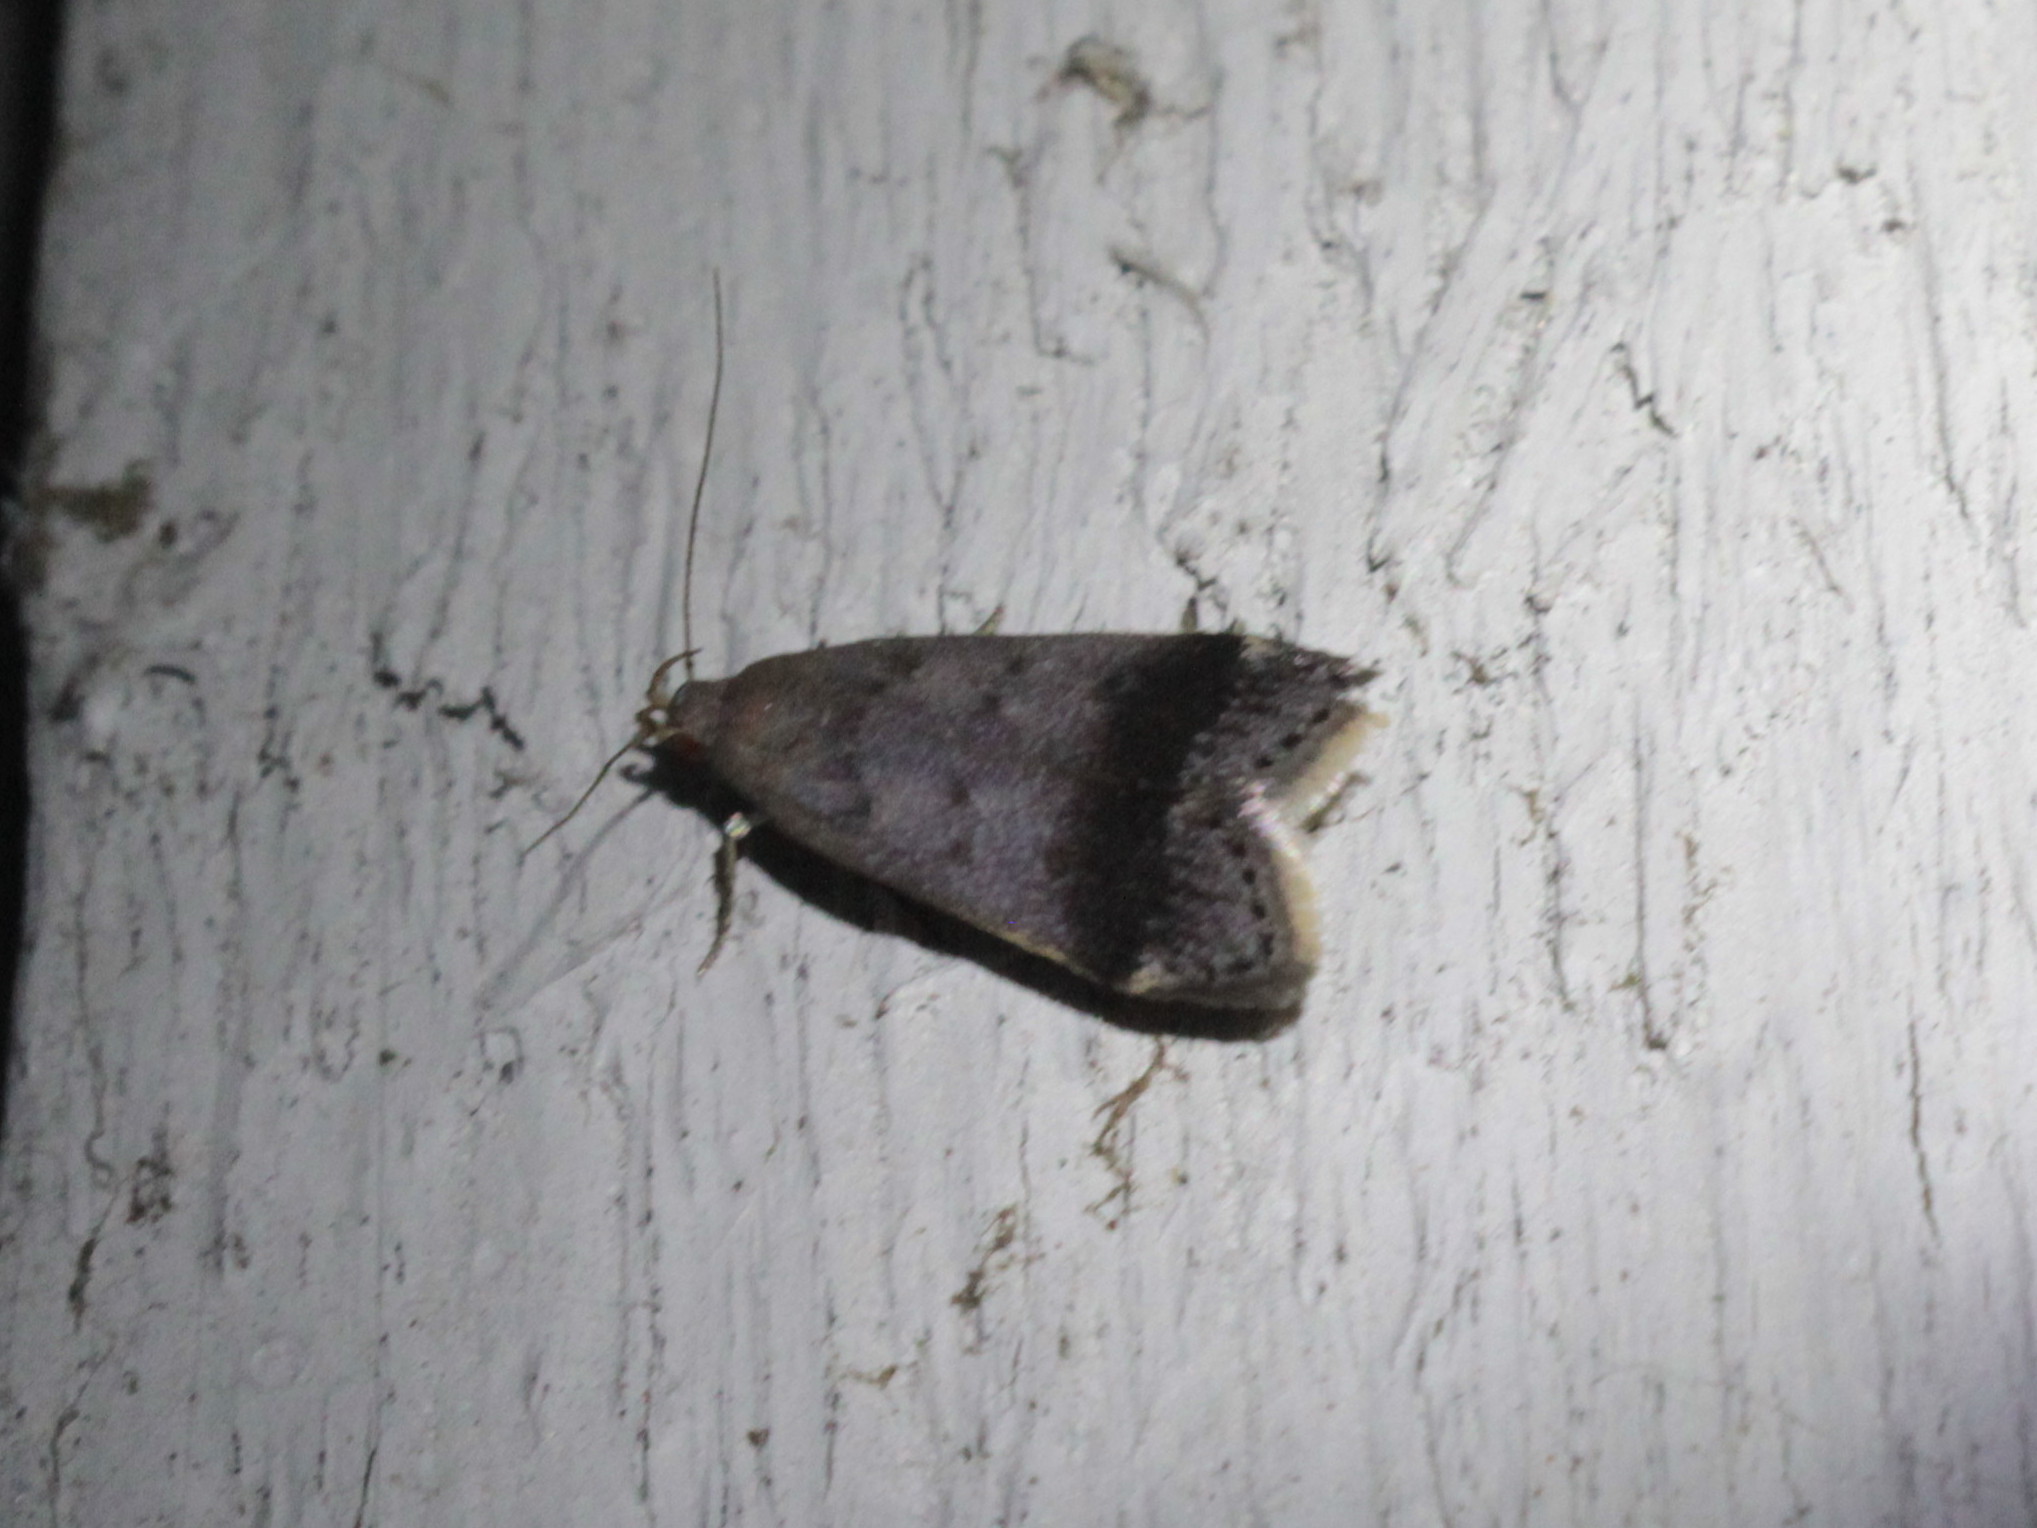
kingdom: Animalia
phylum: Arthropoda
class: Insecta
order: Lepidoptera
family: Gelechiidae
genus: Anacampsis
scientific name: Anacampsis fragariella
